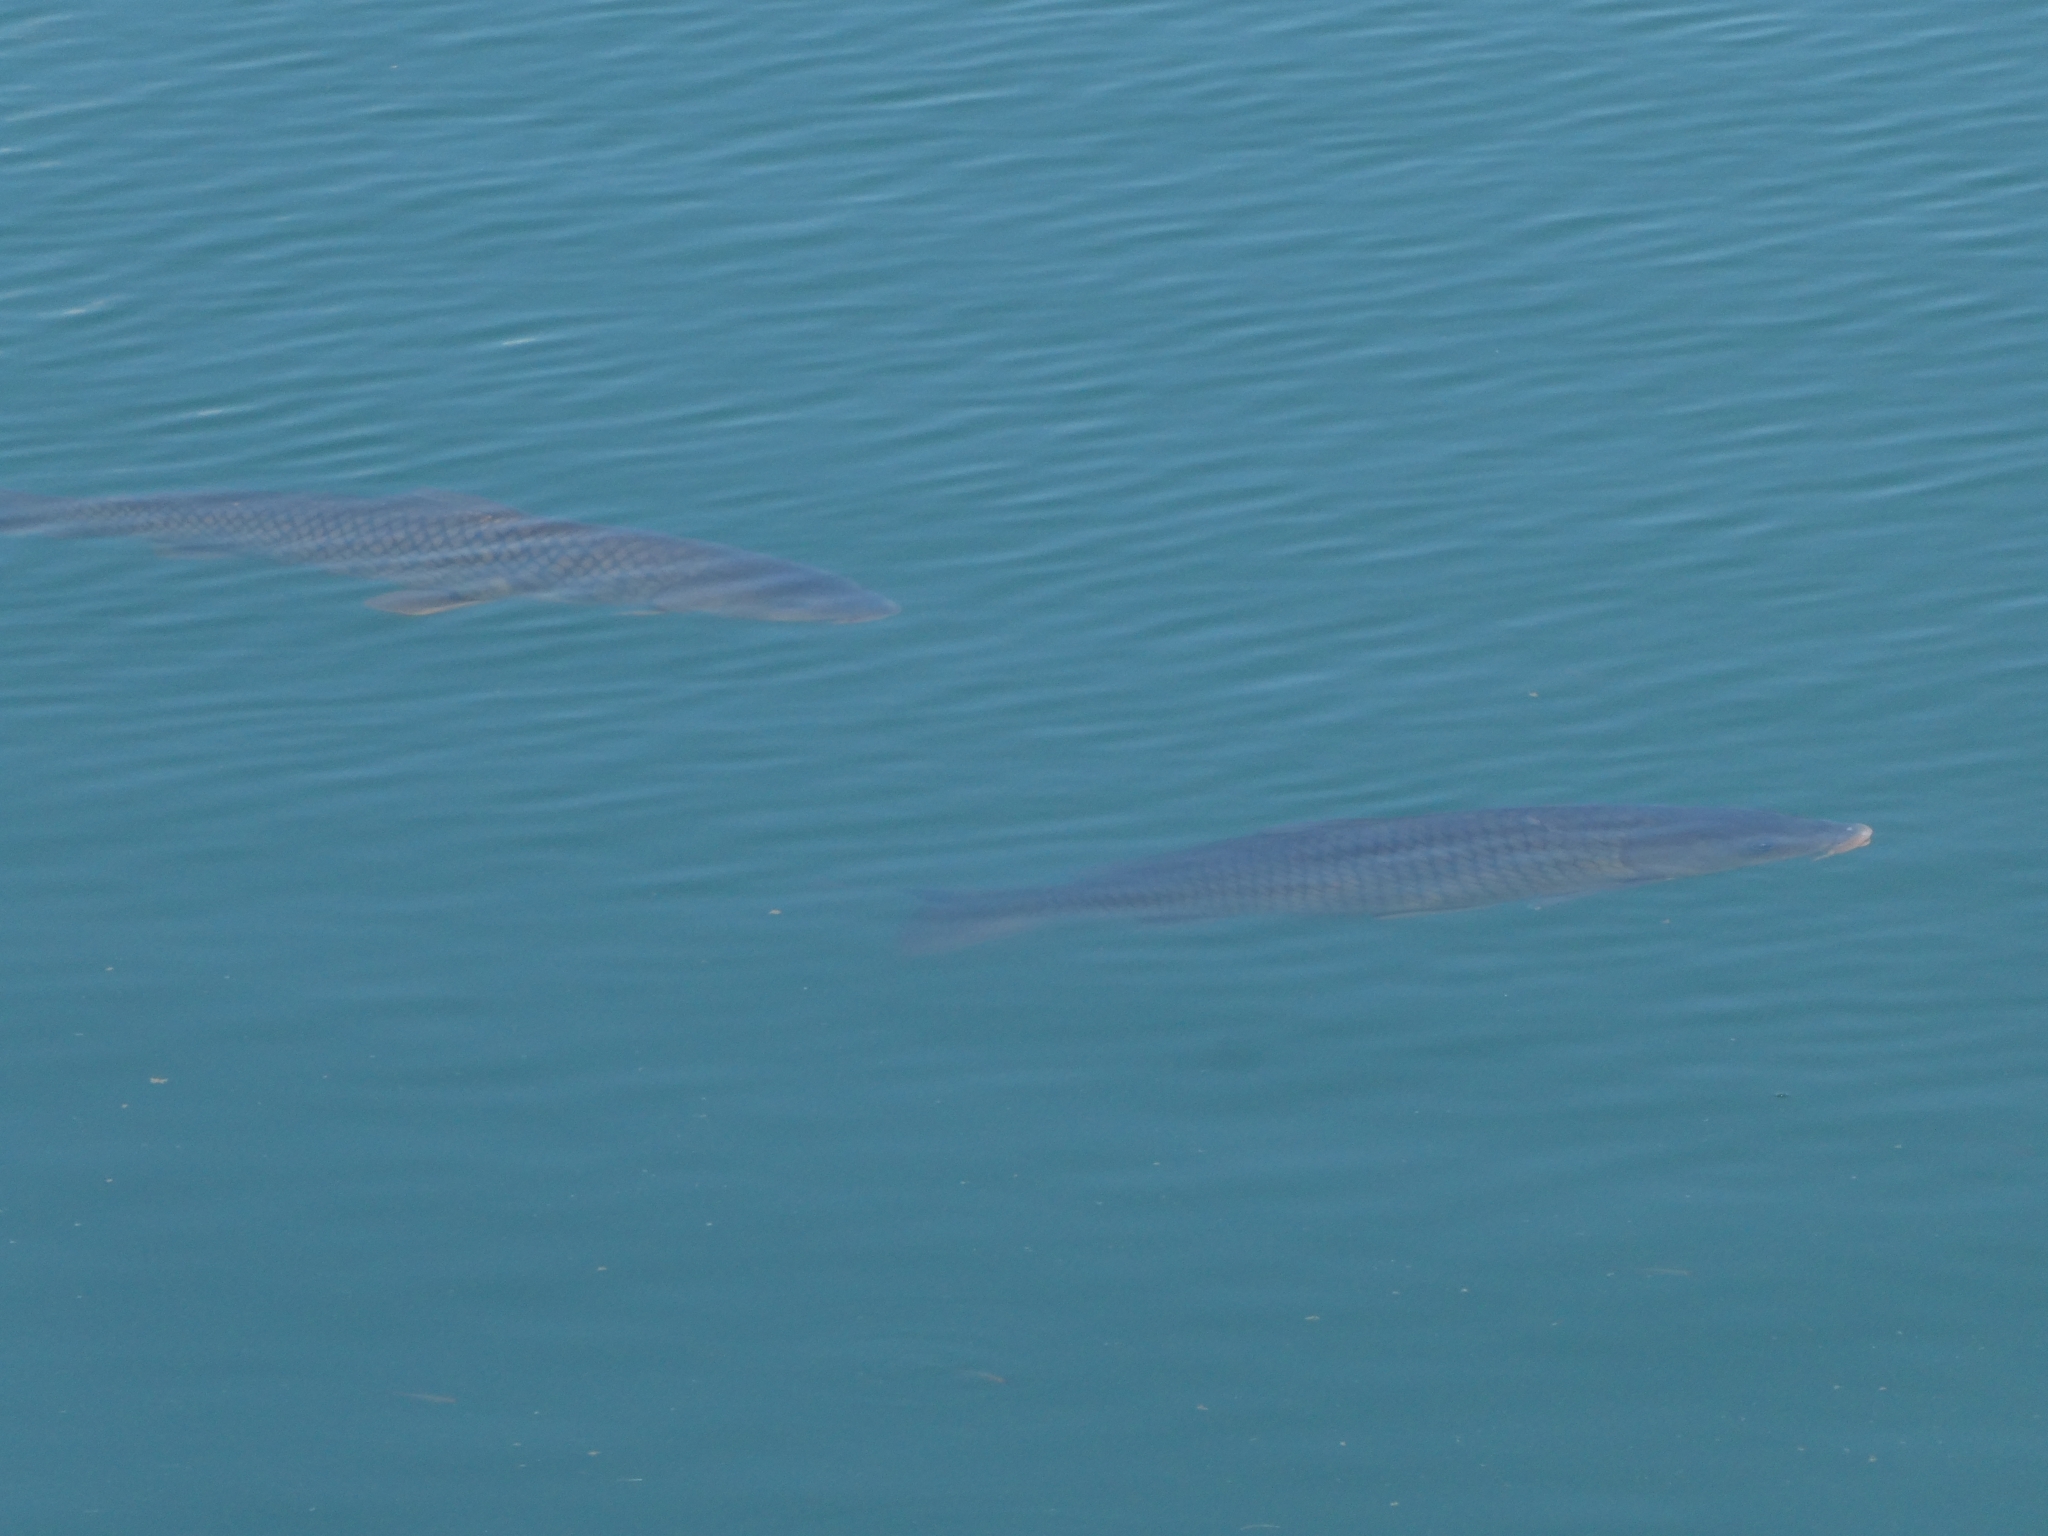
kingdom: Animalia
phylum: Chordata
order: Cypriniformes
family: Cyprinidae
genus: Cyprinus
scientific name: Cyprinus carpio
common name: Common carp
